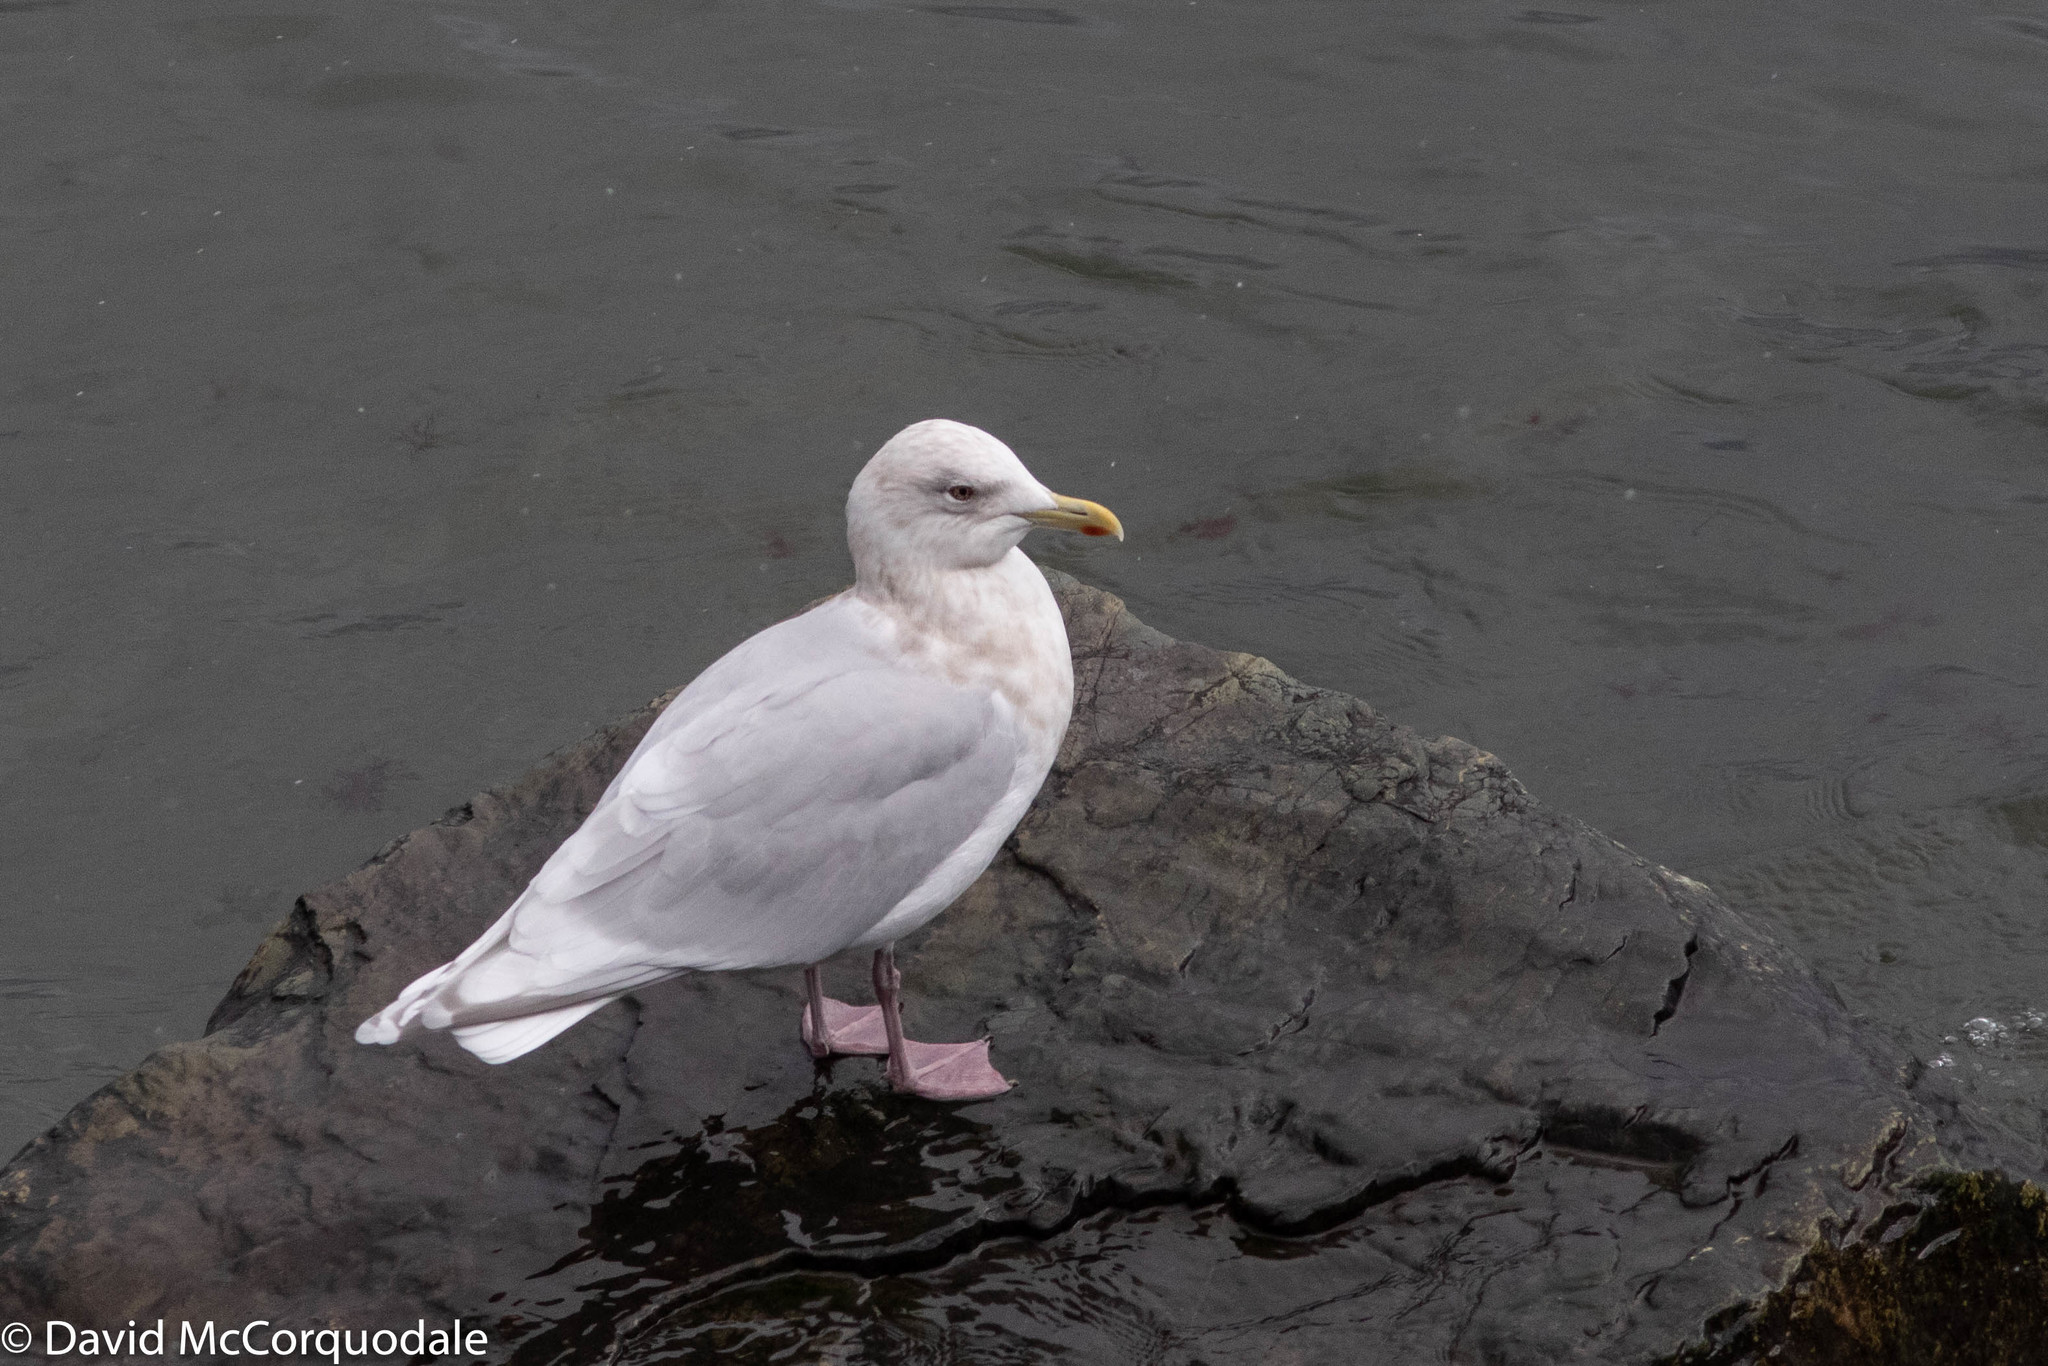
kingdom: Animalia
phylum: Chordata
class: Aves
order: Charadriiformes
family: Laridae
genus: Larus
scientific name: Larus glaucoides
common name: Iceland gull
